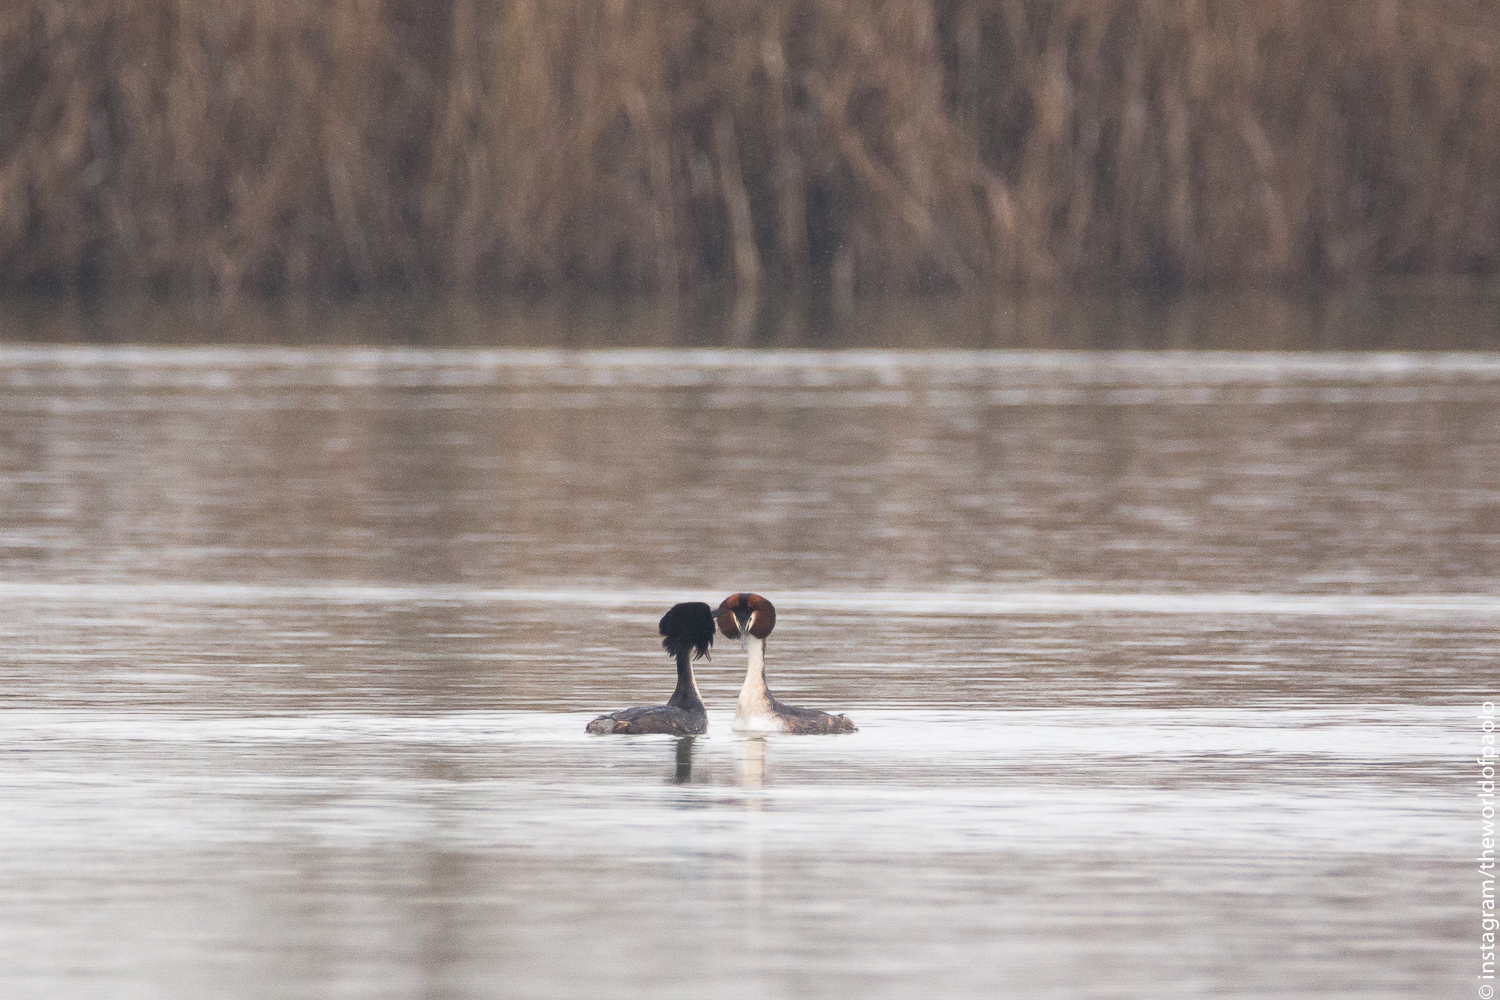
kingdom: Animalia
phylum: Chordata
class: Aves
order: Podicipediformes
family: Podicipedidae
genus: Podiceps
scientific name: Podiceps cristatus
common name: Great crested grebe
